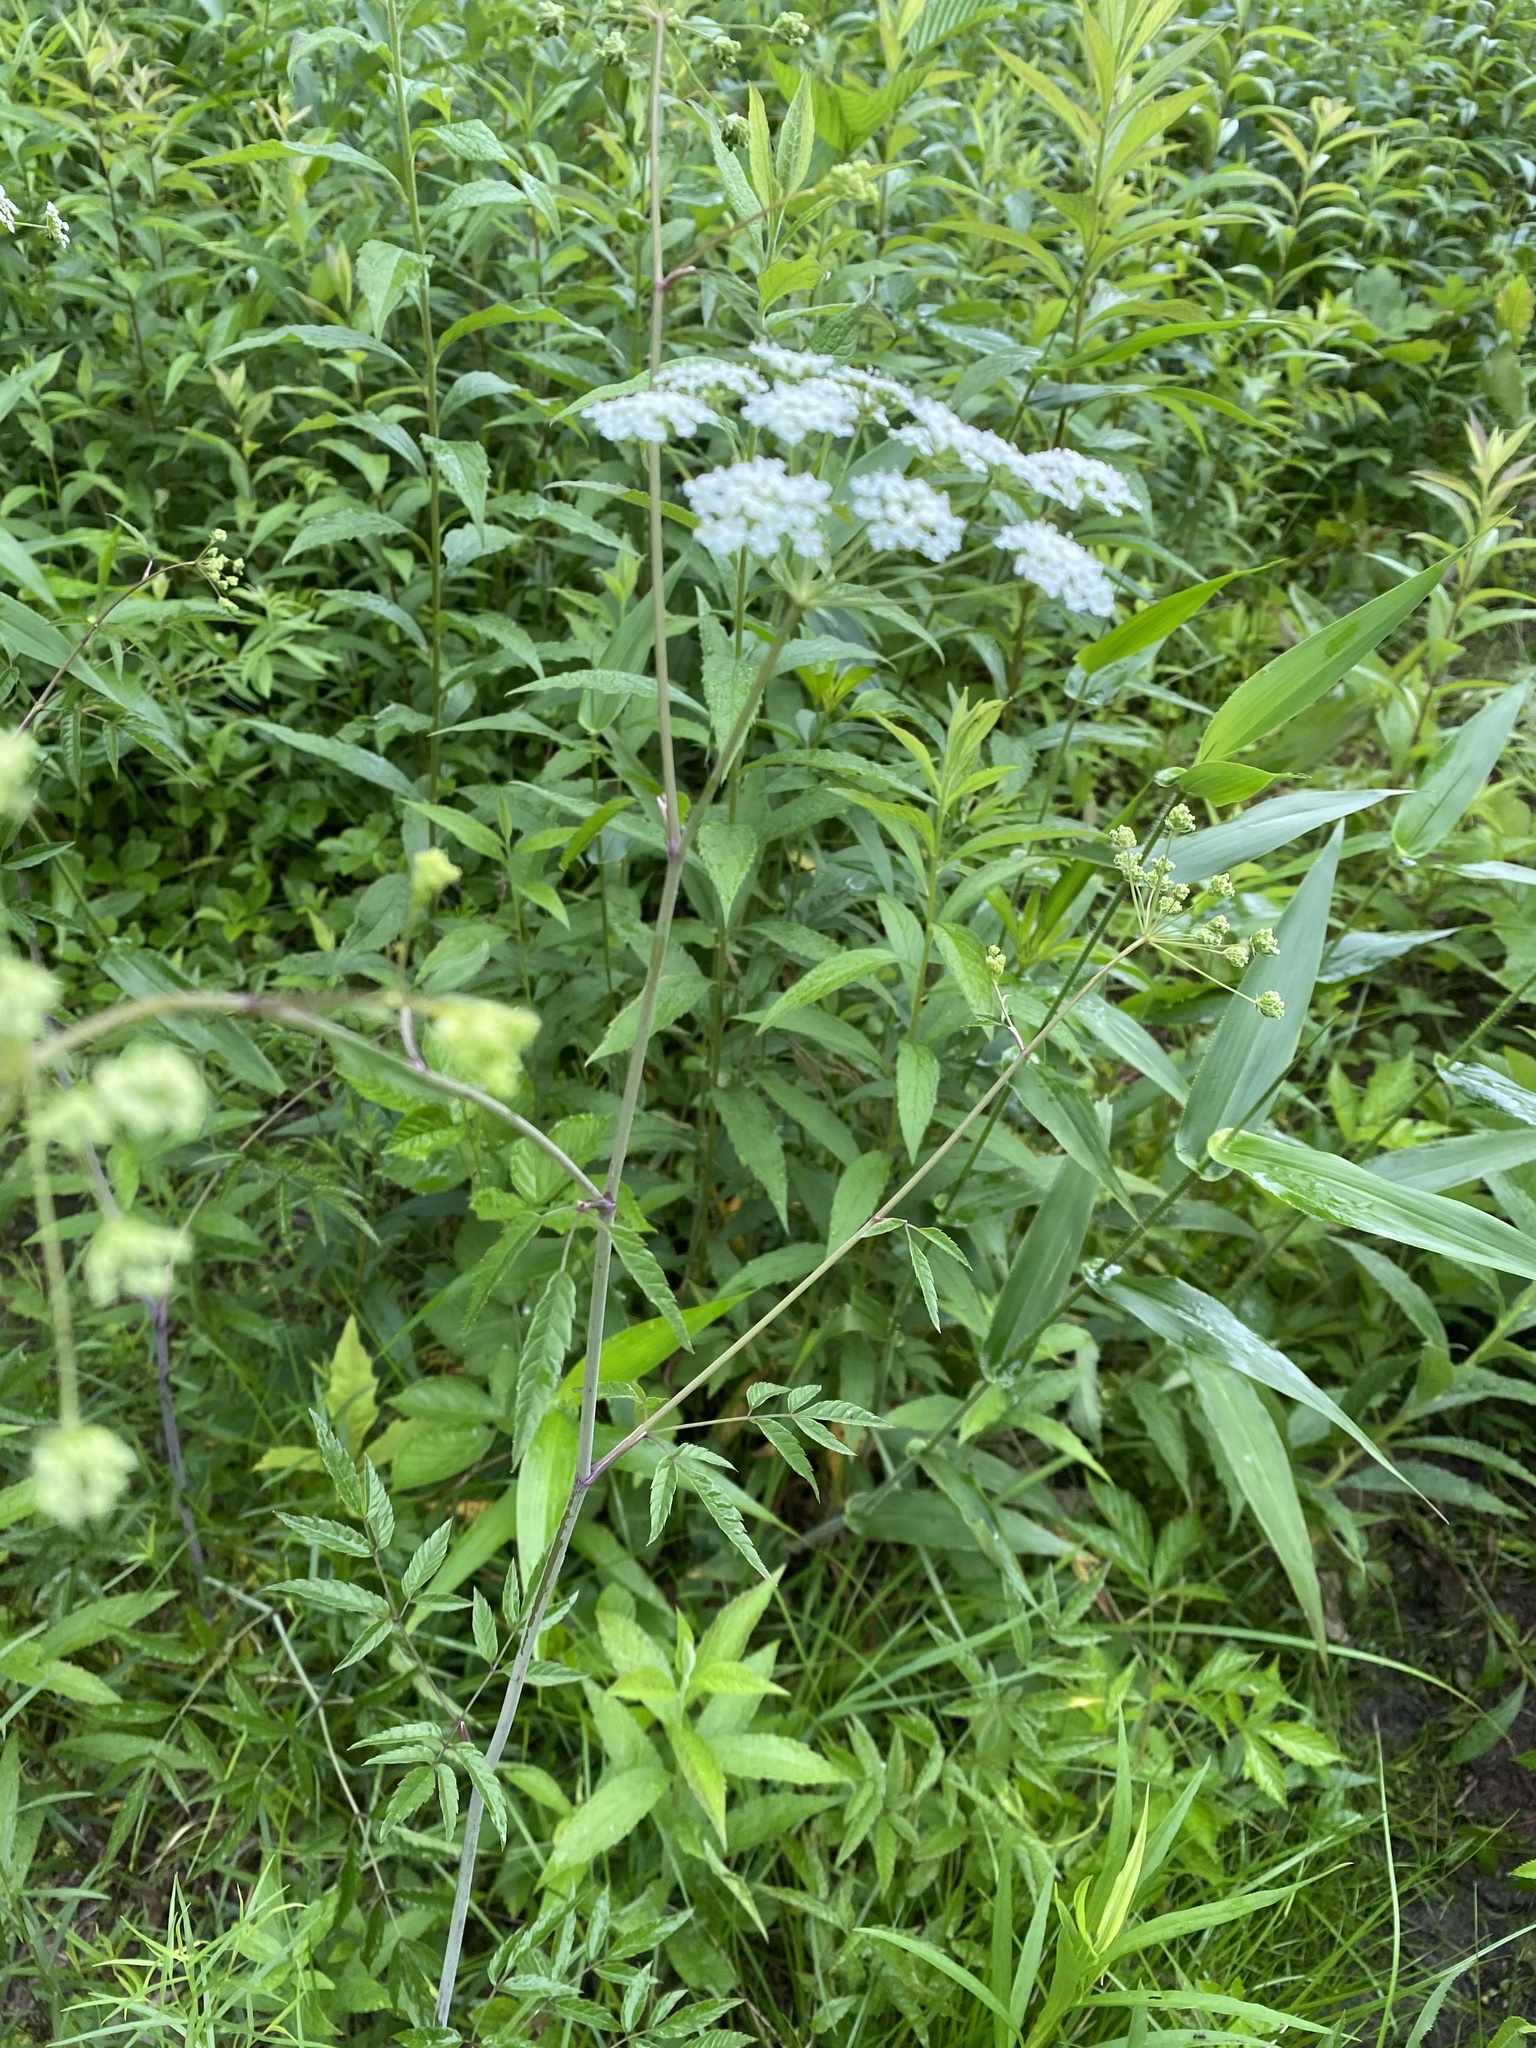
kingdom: Plantae
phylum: Tracheophyta
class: Magnoliopsida
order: Apiales
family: Apiaceae
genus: Cicuta
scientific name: Cicuta maculata
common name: Spotted cowbane
